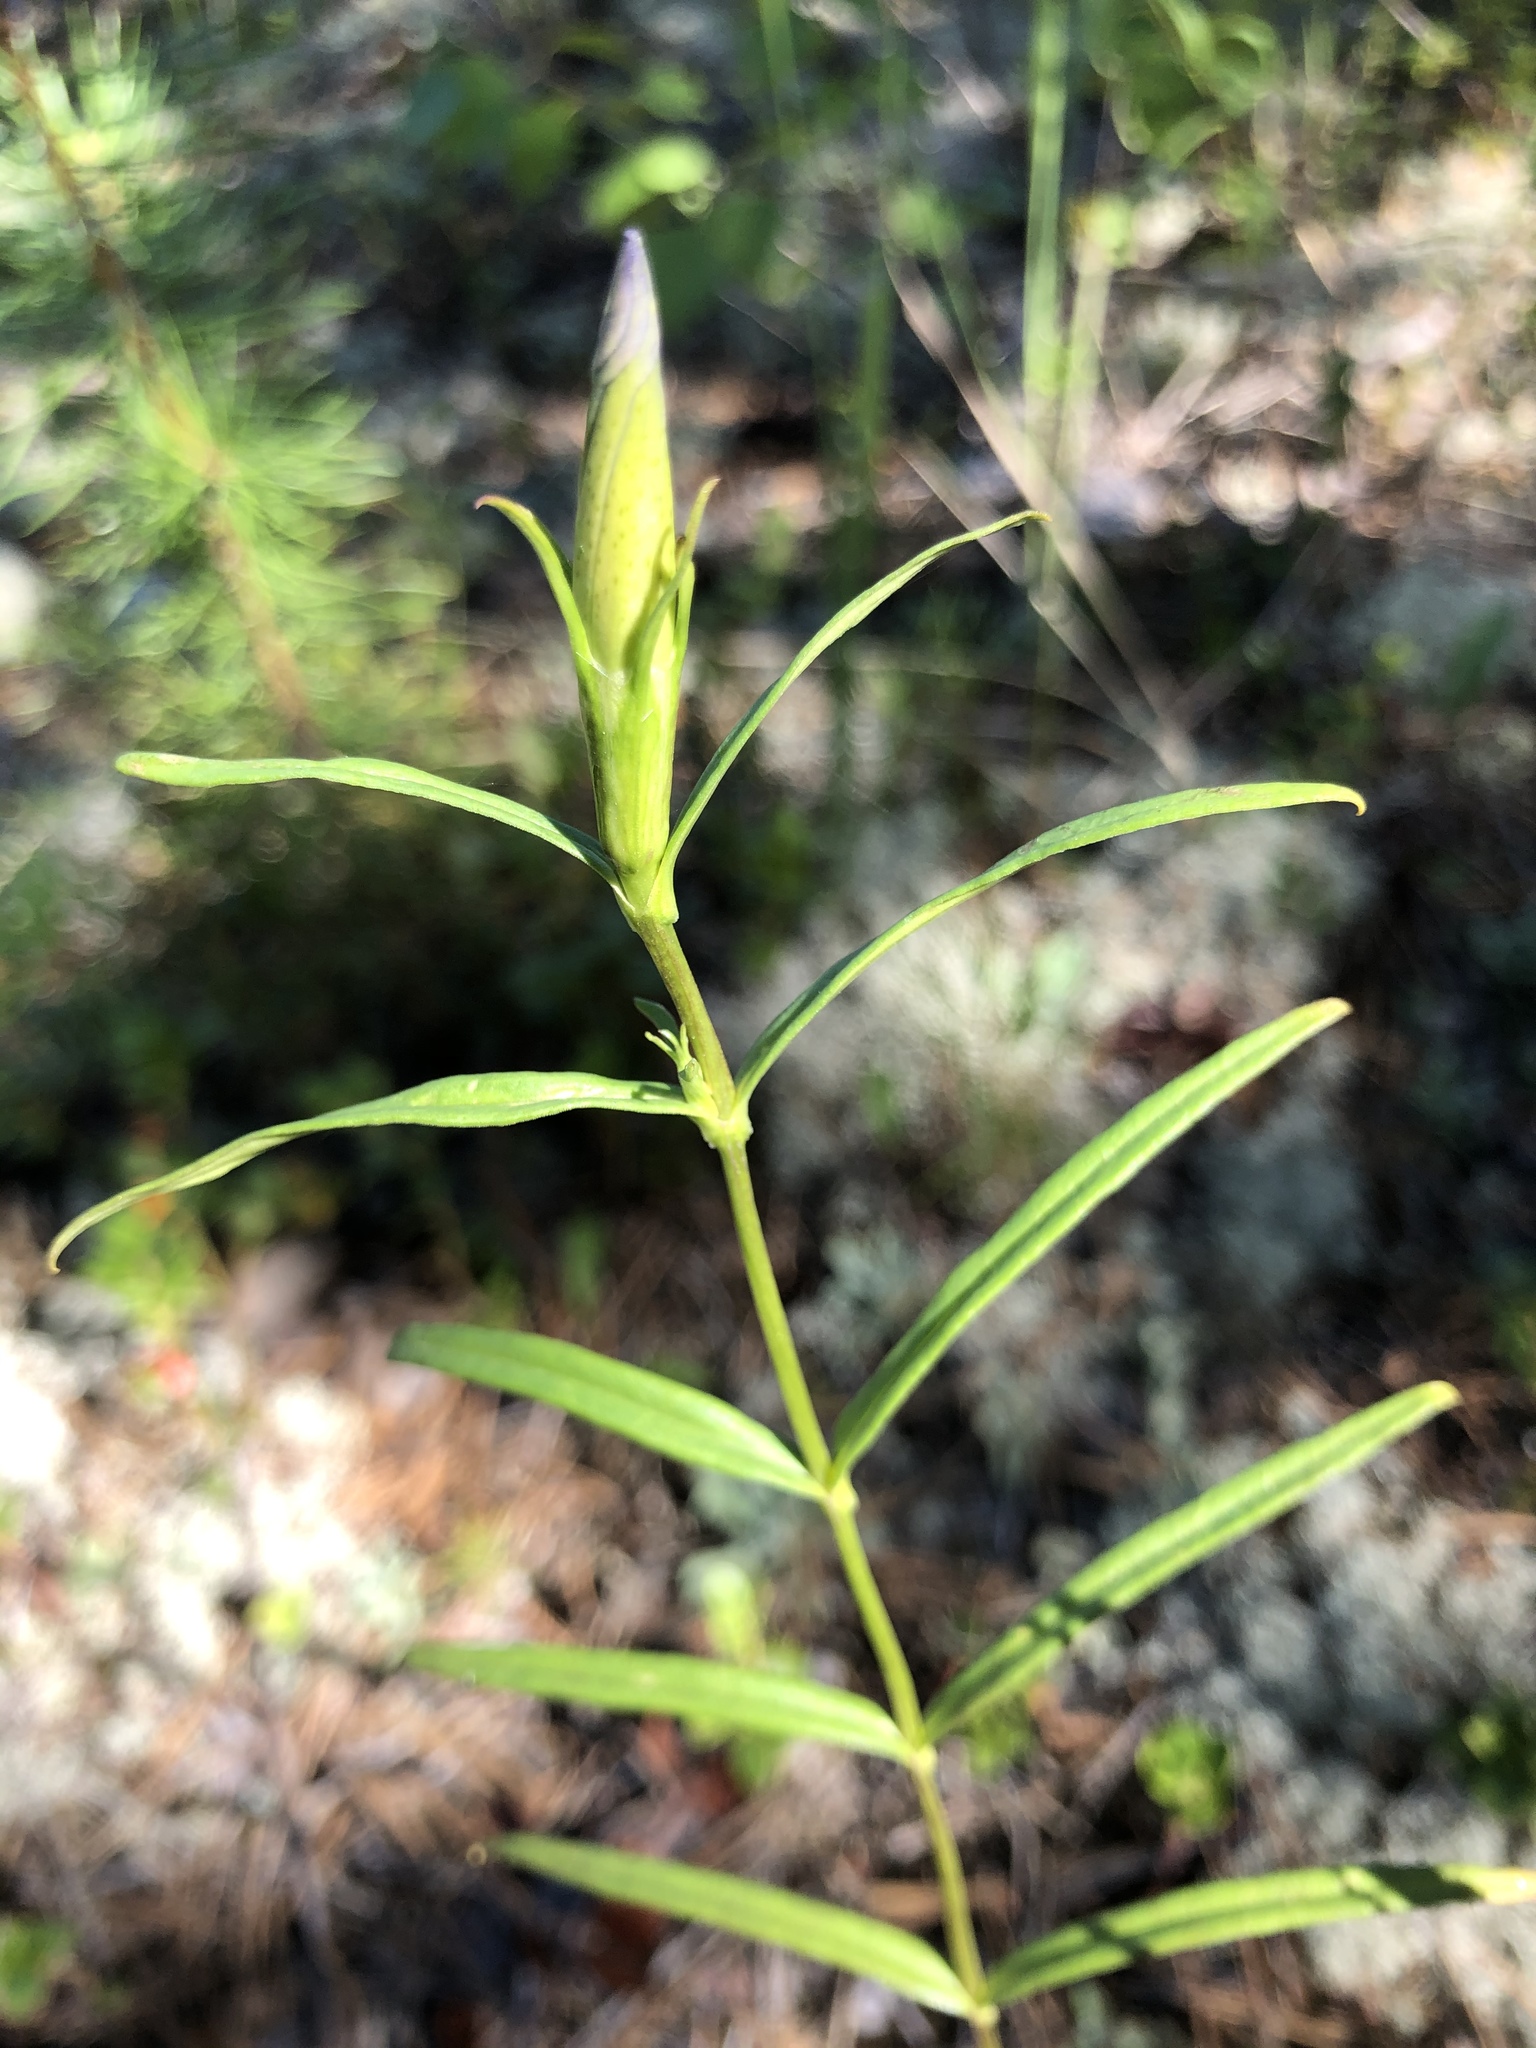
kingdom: Plantae
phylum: Tracheophyta
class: Magnoliopsida
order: Gentianales
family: Gentianaceae
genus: Gentiana
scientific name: Gentiana pneumonanthe
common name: Marsh gentian
